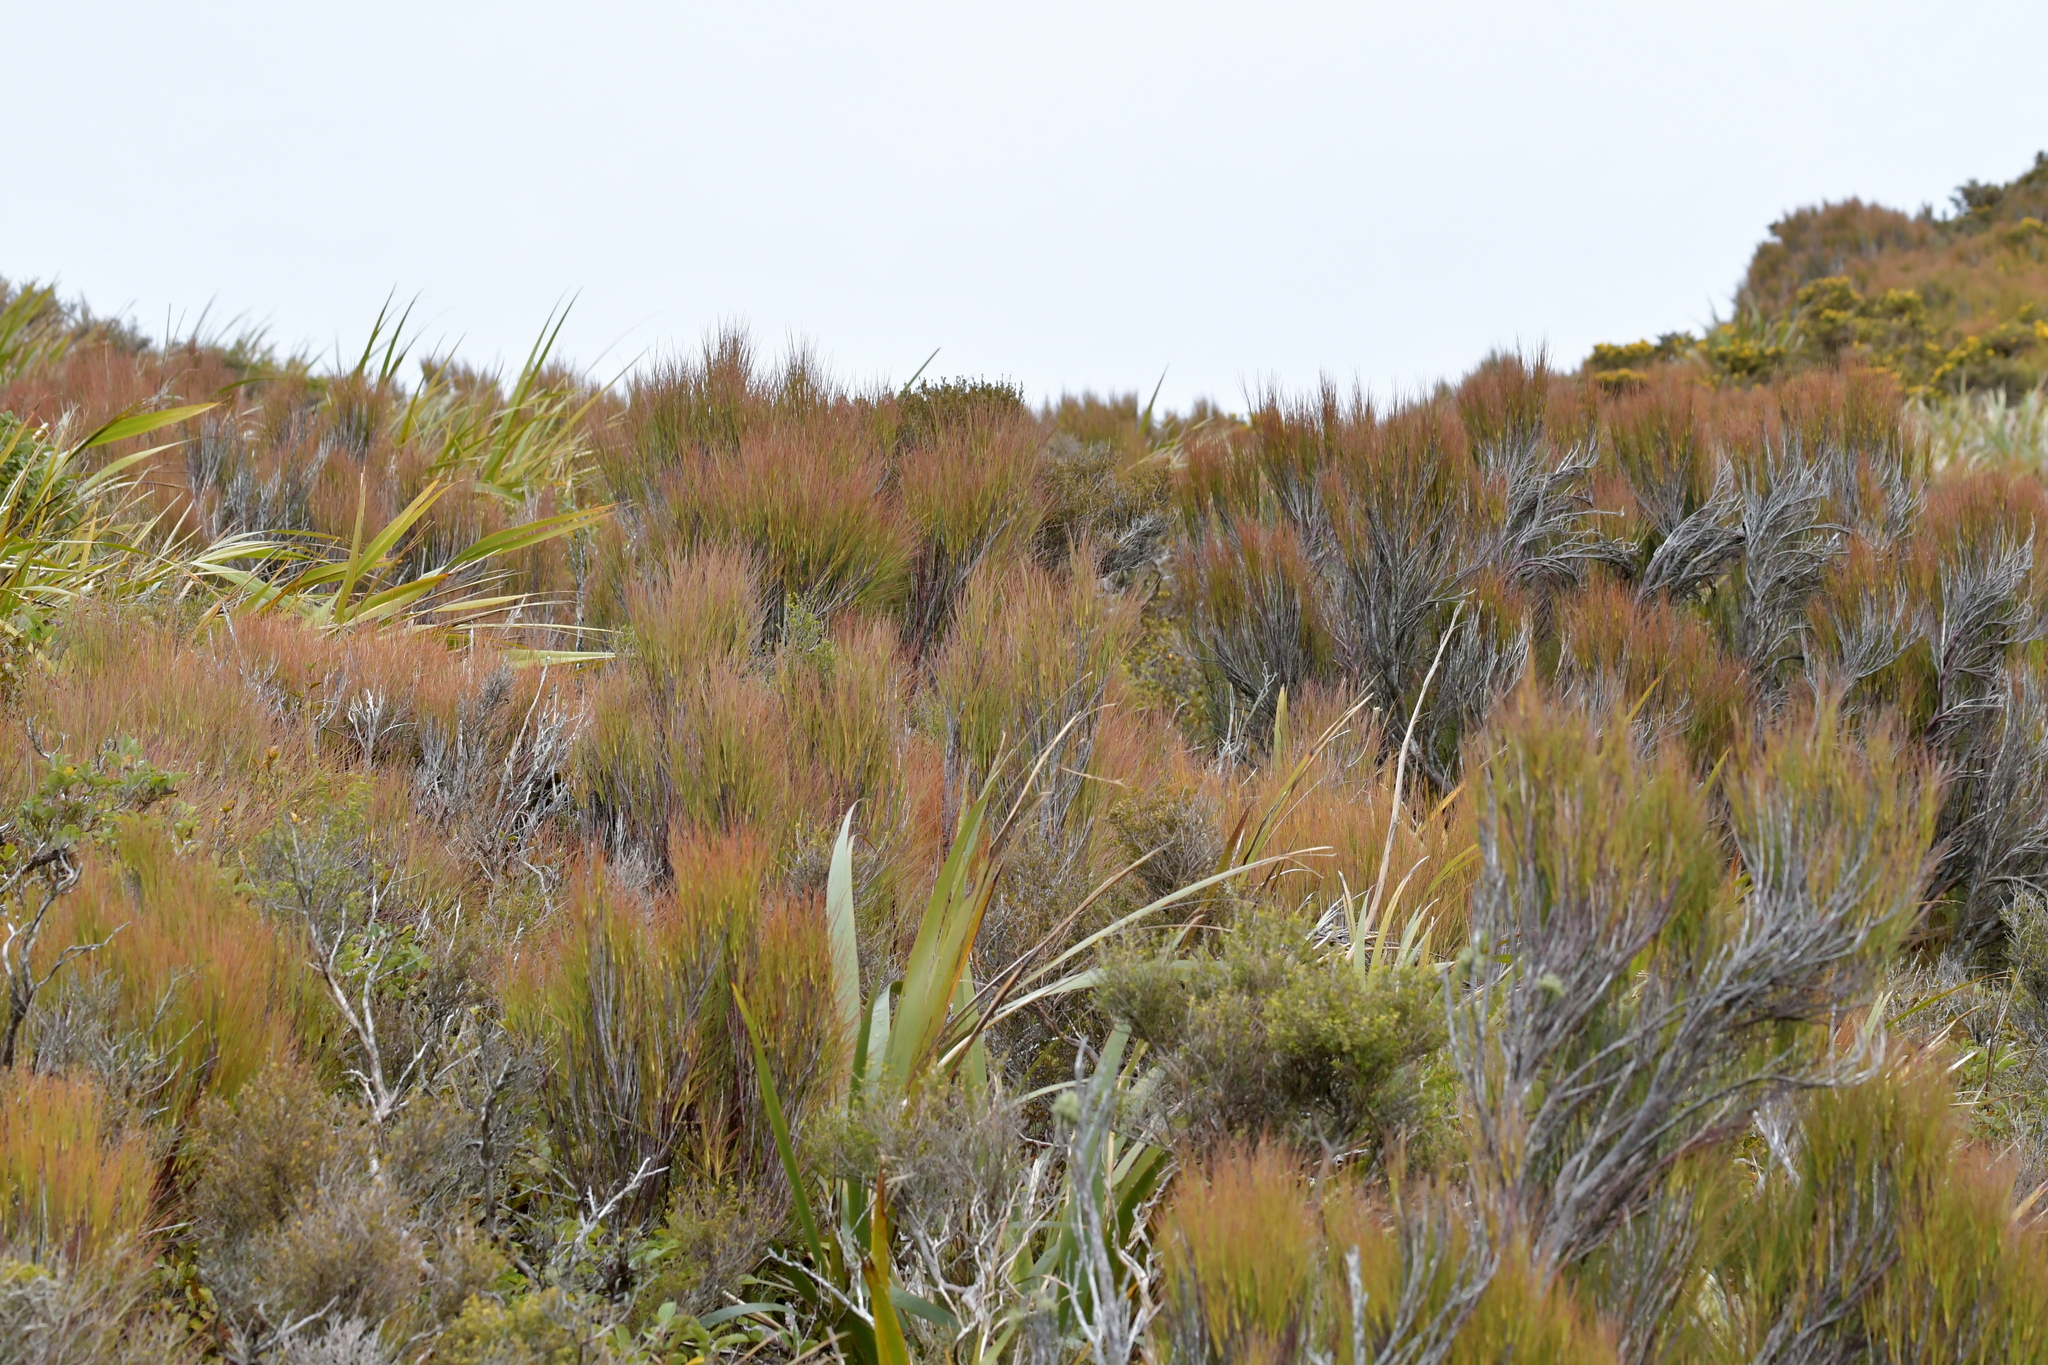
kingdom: Plantae
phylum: Tracheophyta
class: Magnoliopsida
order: Ericales
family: Ericaceae
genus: Dracophyllum
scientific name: Dracophyllum filifolium
